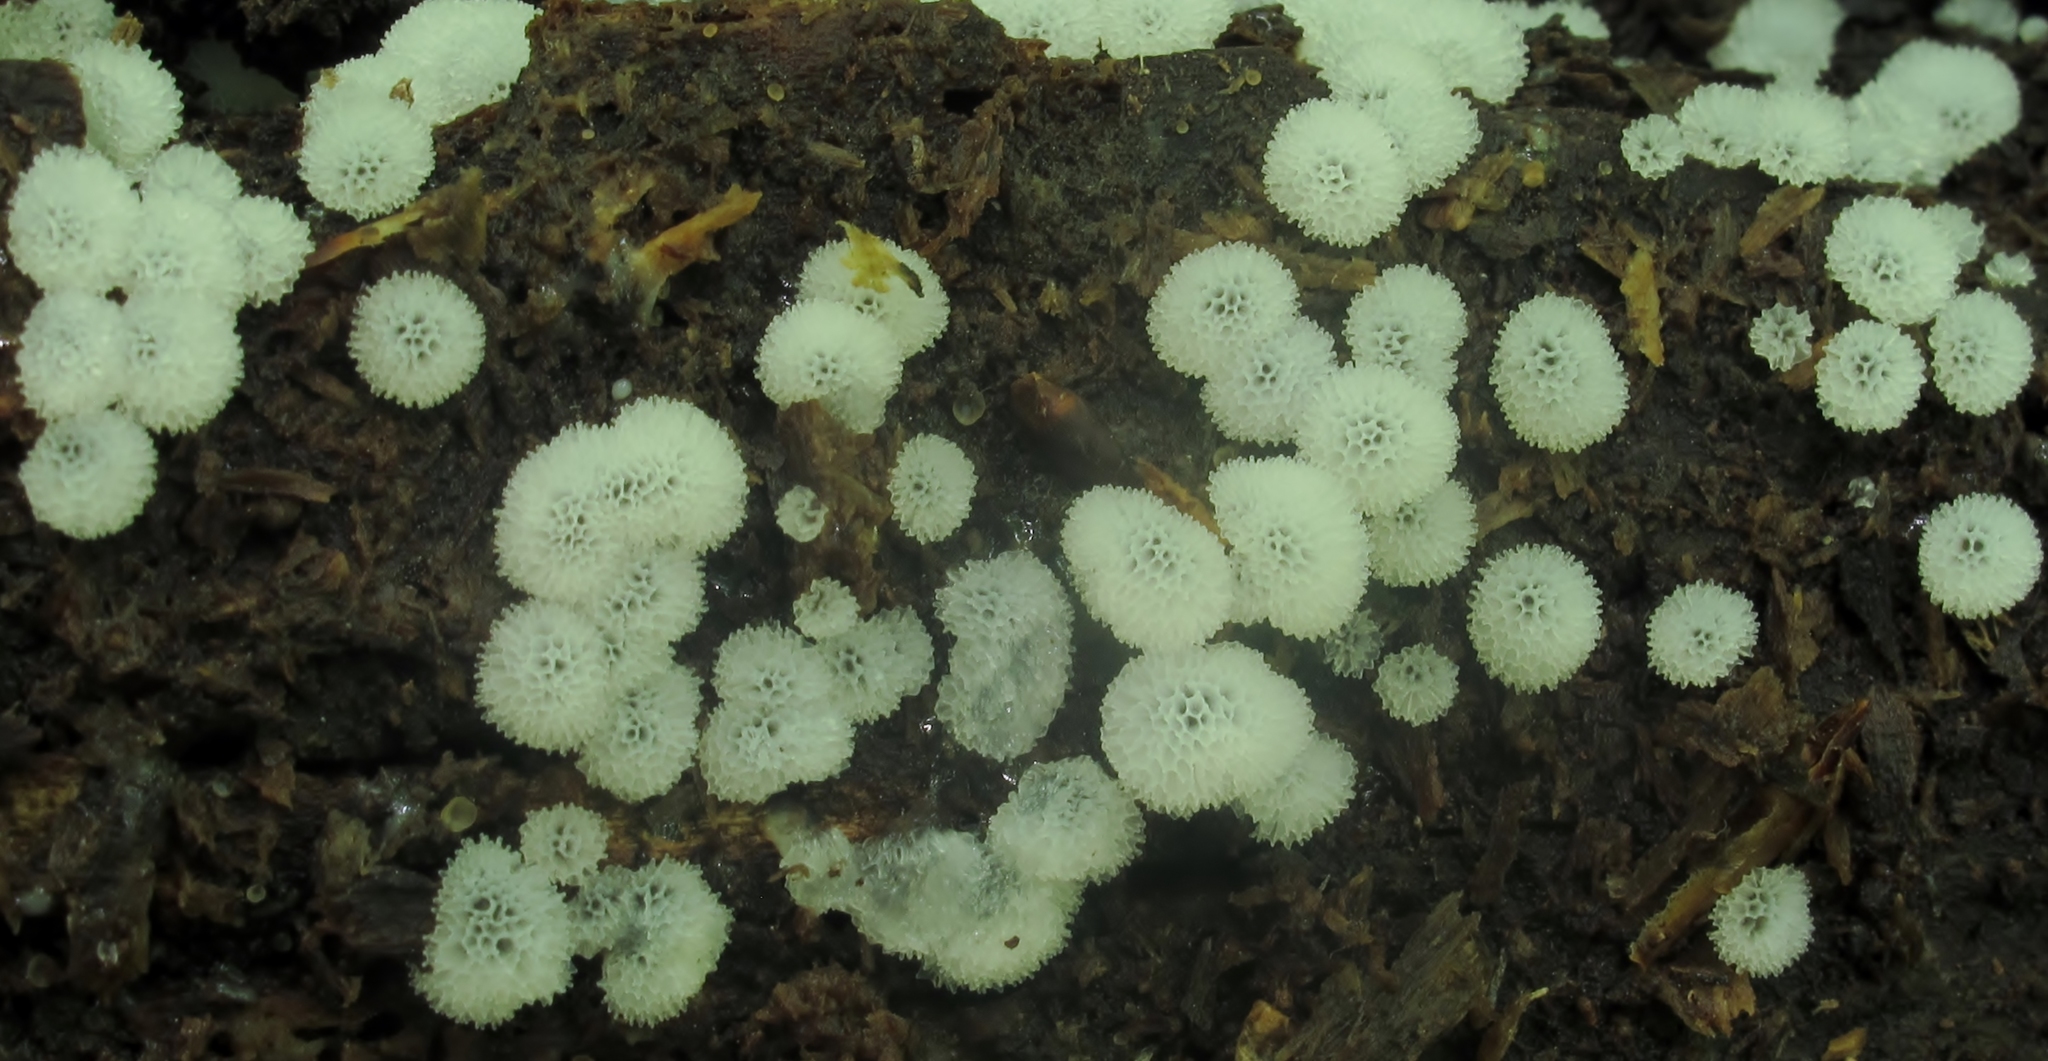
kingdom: Protozoa
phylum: Mycetozoa
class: Protosteliomycetes
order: Ceratiomyxales
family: Ceratiomyxaceae
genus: Ceratiomyxa
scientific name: Ceratiomyxa fruticulosa
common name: Honeycomb coral slime mold
